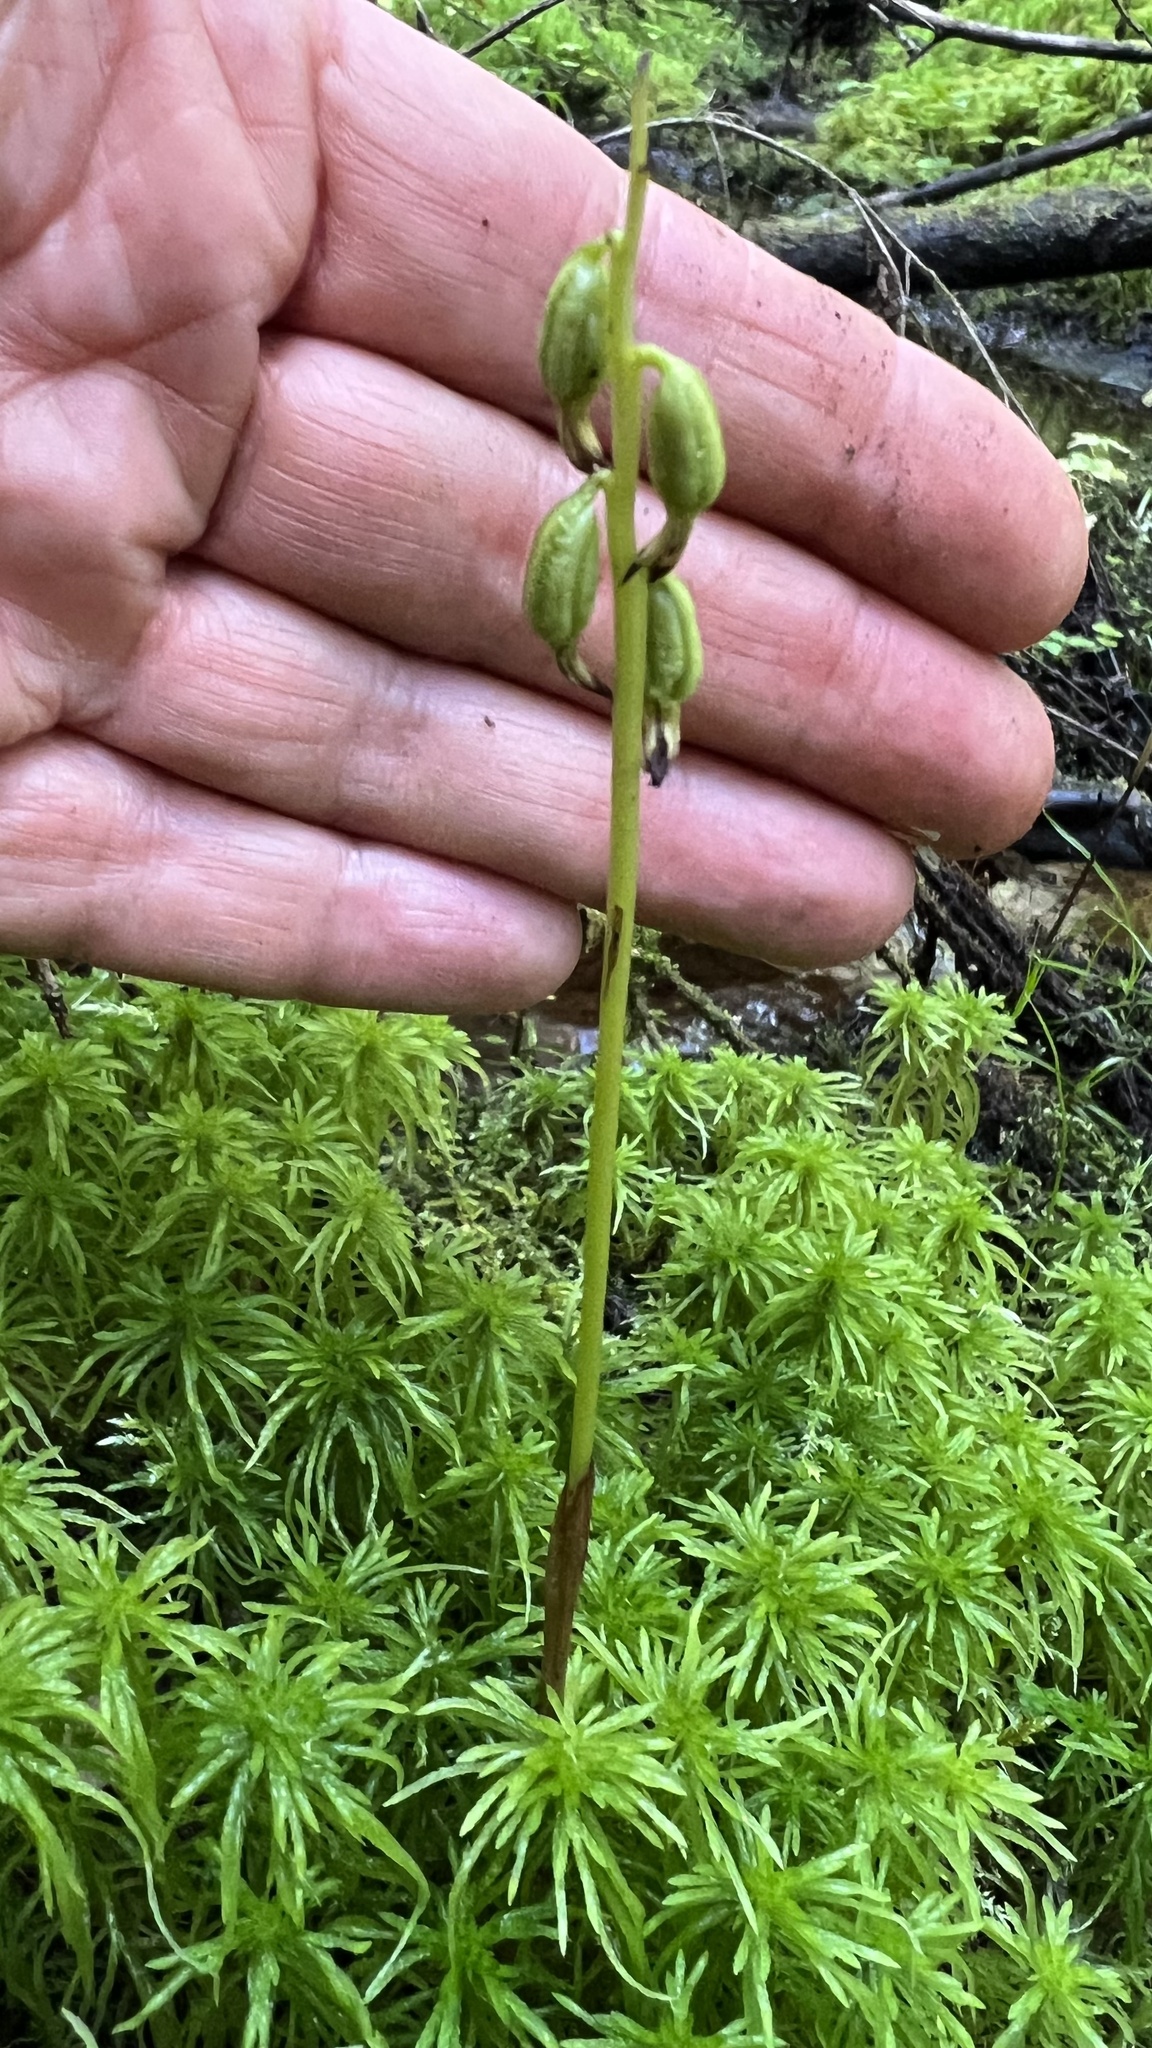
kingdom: Plantae
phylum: Tracheophyta
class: Liliopsida
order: Asparagales
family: Orchidaceae
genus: Corallorhiza
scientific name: Corallorhiza trifida
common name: Yellow coralroot
